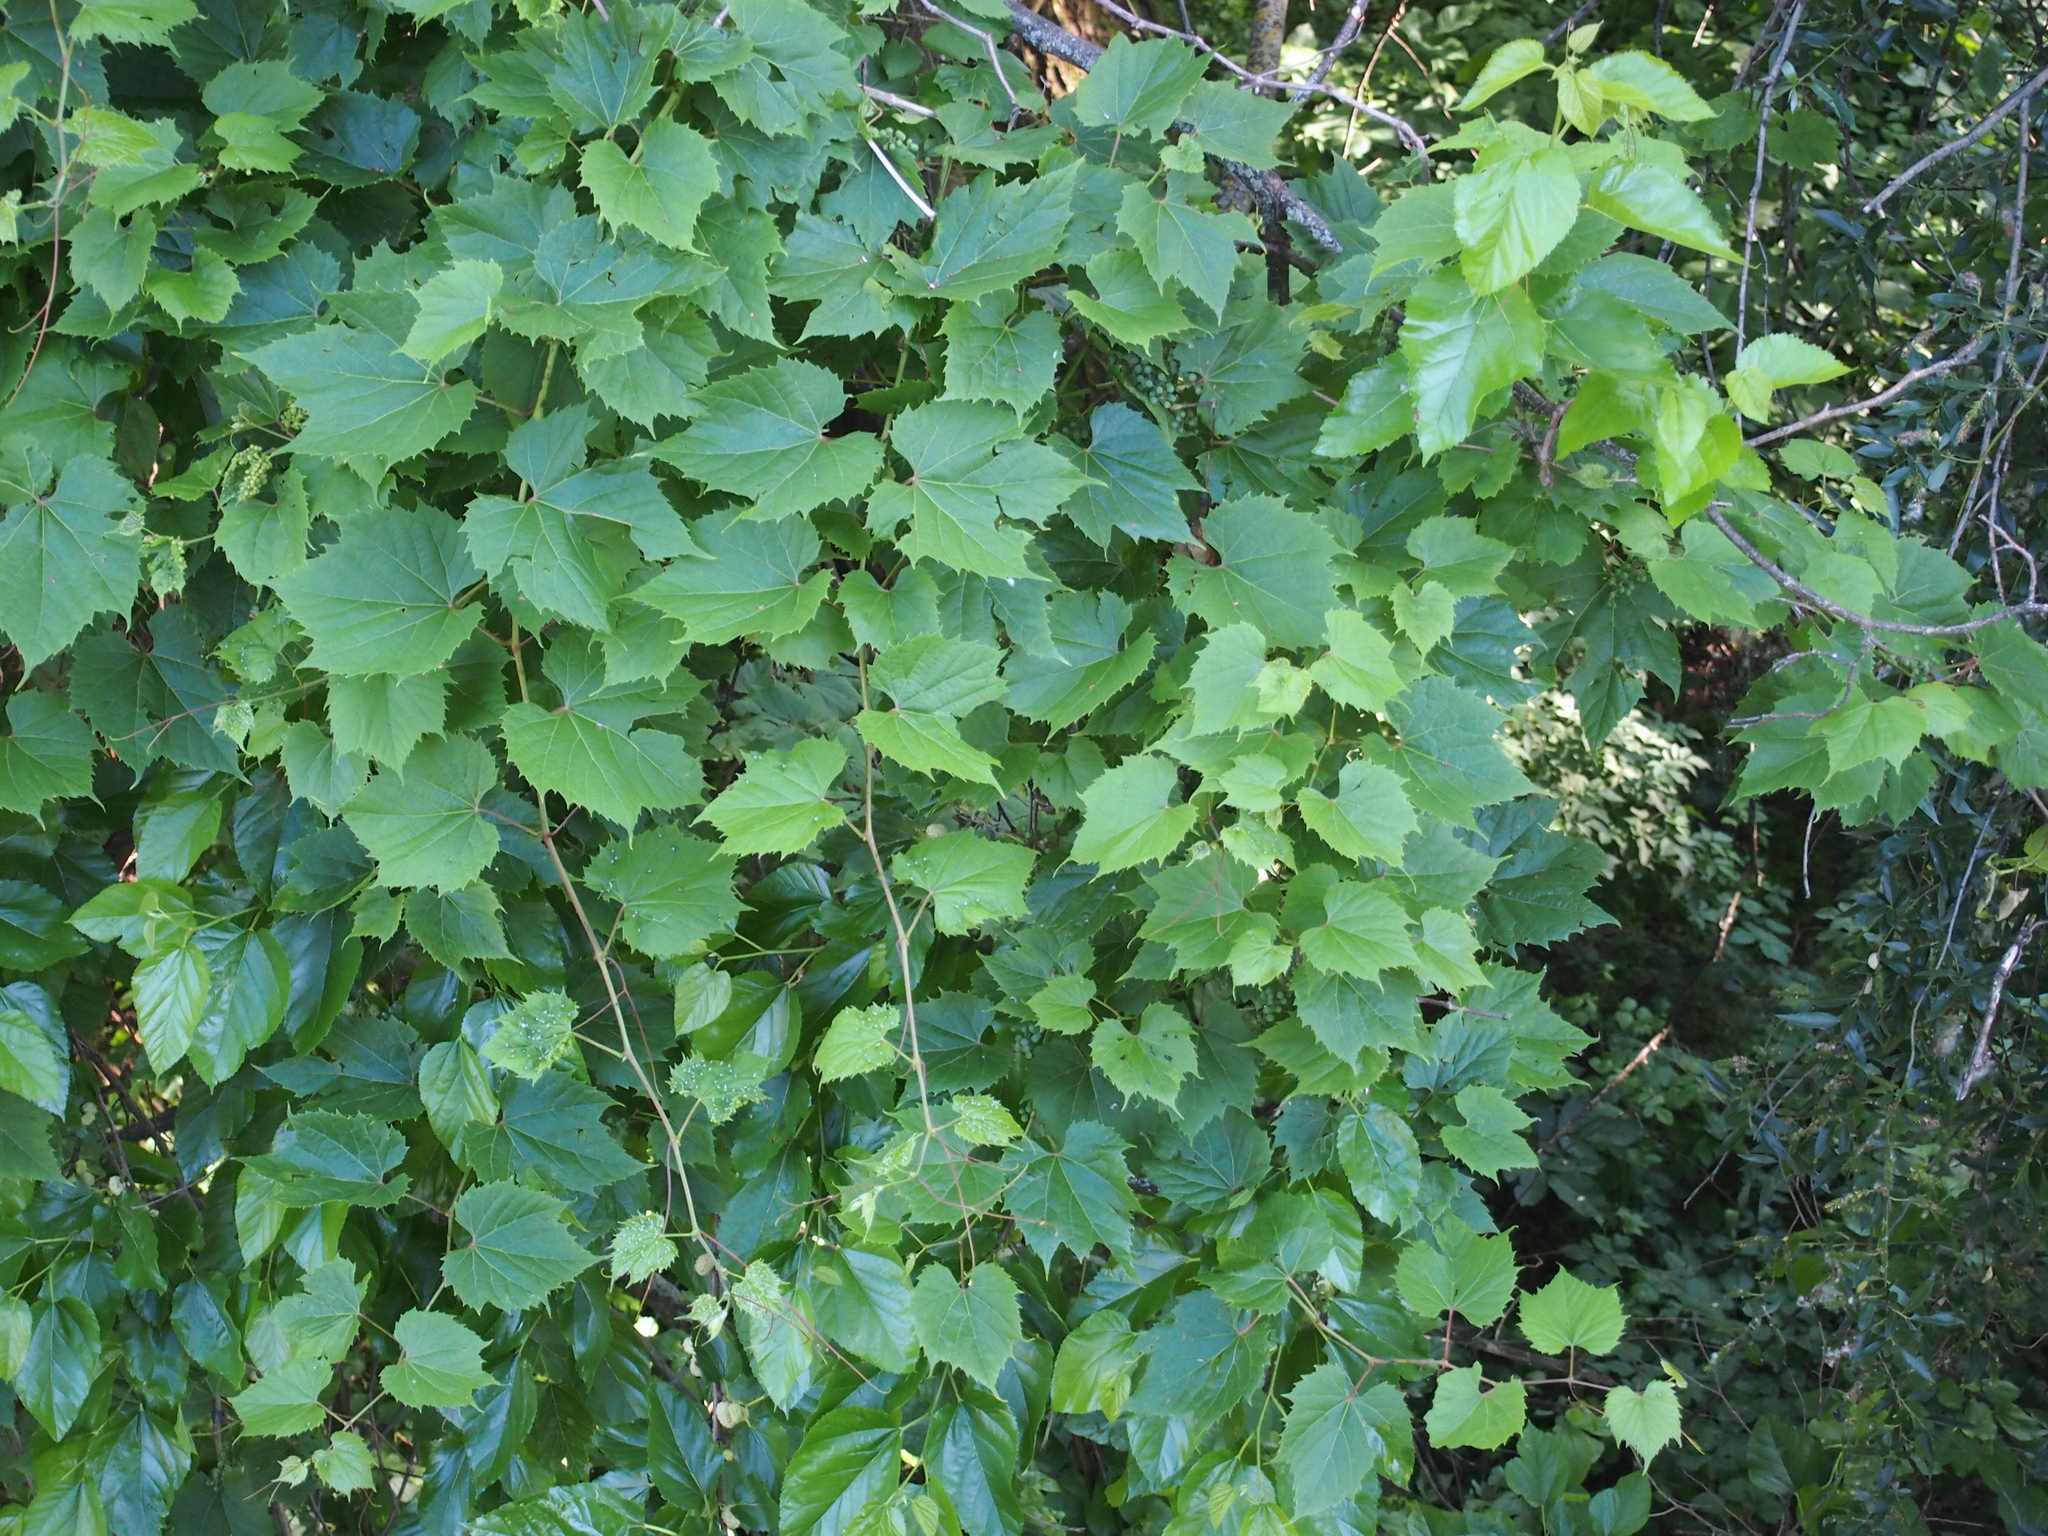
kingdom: Plantae
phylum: Tracheophyta
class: Magnoliopsida
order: Vitales
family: Vitaceae
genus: Vitis
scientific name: Vitis vinifera
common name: Grape-vine
